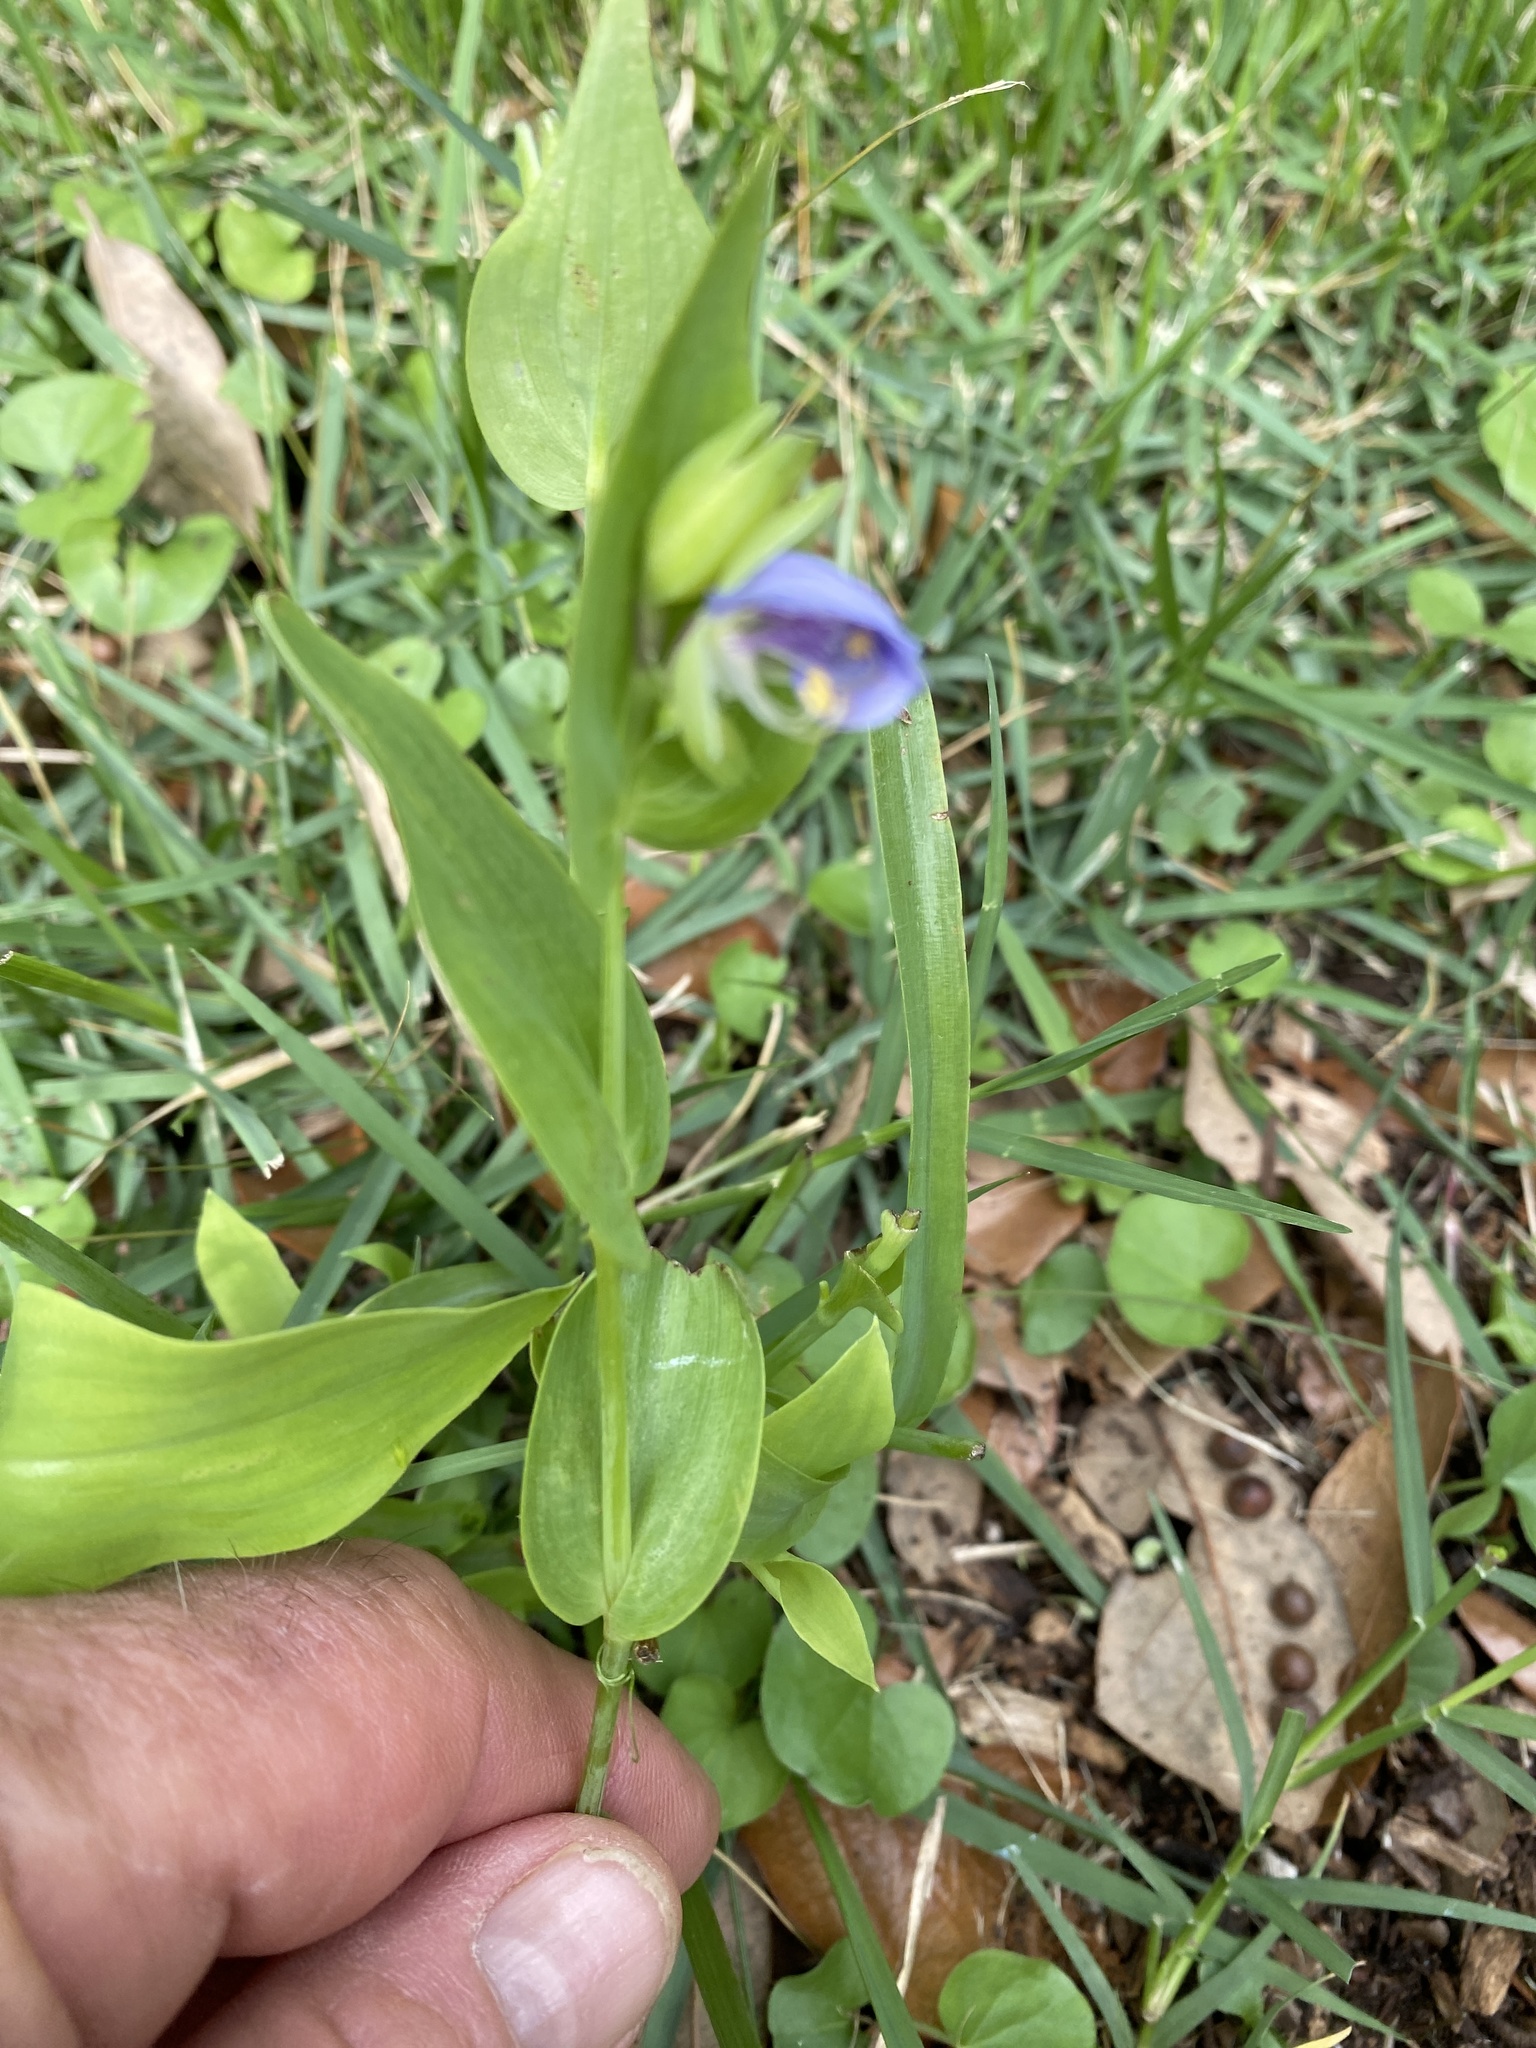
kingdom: Plantae
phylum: Tracheophyta
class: Liliopsida
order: Commelinales
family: Commelinaceae
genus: Tinantia
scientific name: Tinantia anomala
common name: False dayflower
